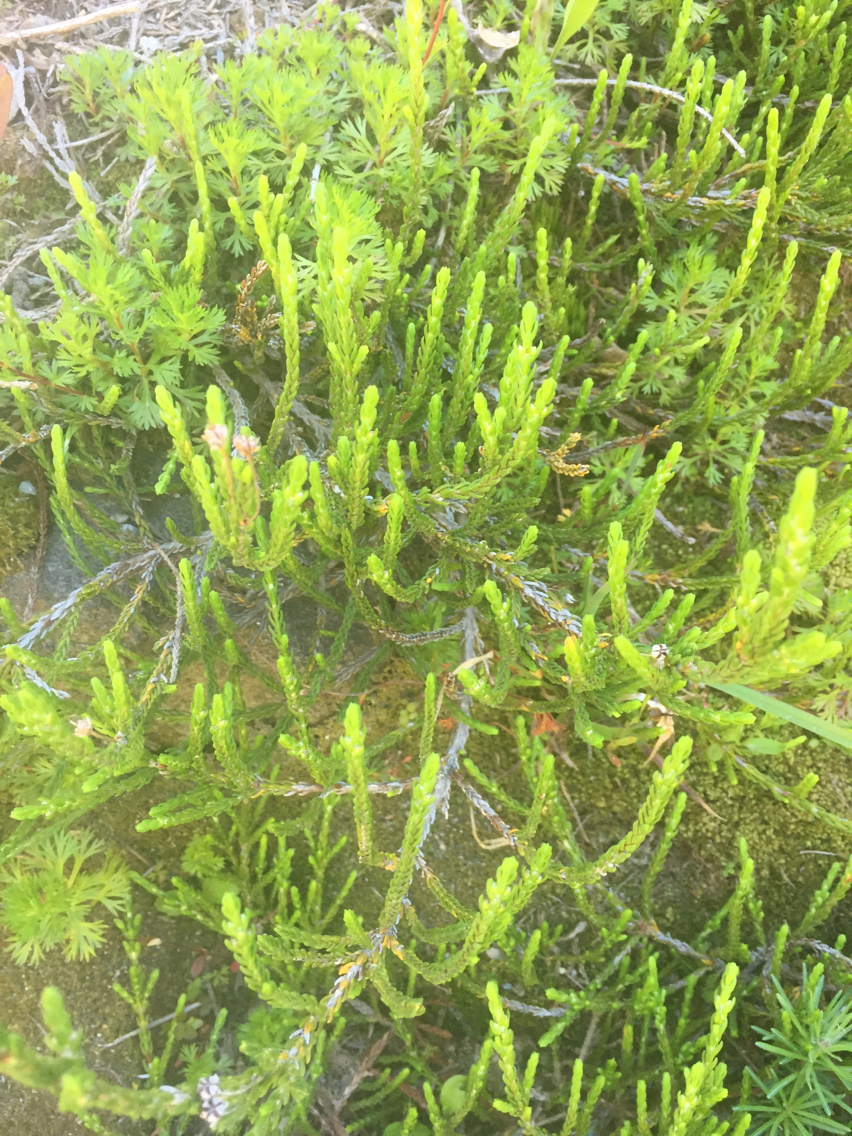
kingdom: Plantae
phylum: Tracheophyta
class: Magnoliopsida
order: Ericales
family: Ericaceae
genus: Cassiope
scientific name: Cassiope mertensiana
